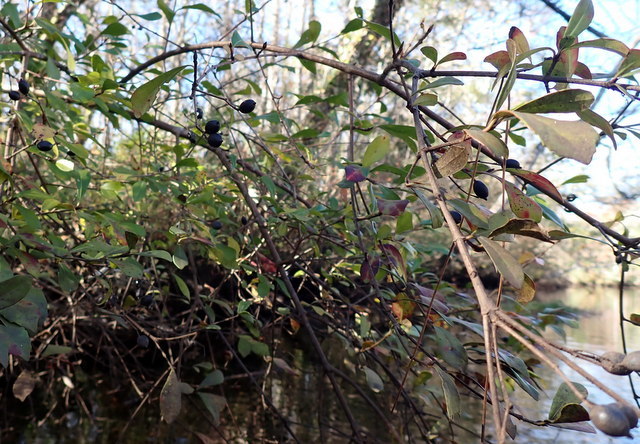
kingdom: Plantae
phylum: Tracheophyta
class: Magnoliopsida
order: Dipsacales
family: Viburnaceae
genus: Viburnum
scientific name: Viburnum obovatum
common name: Walter's viburnum
